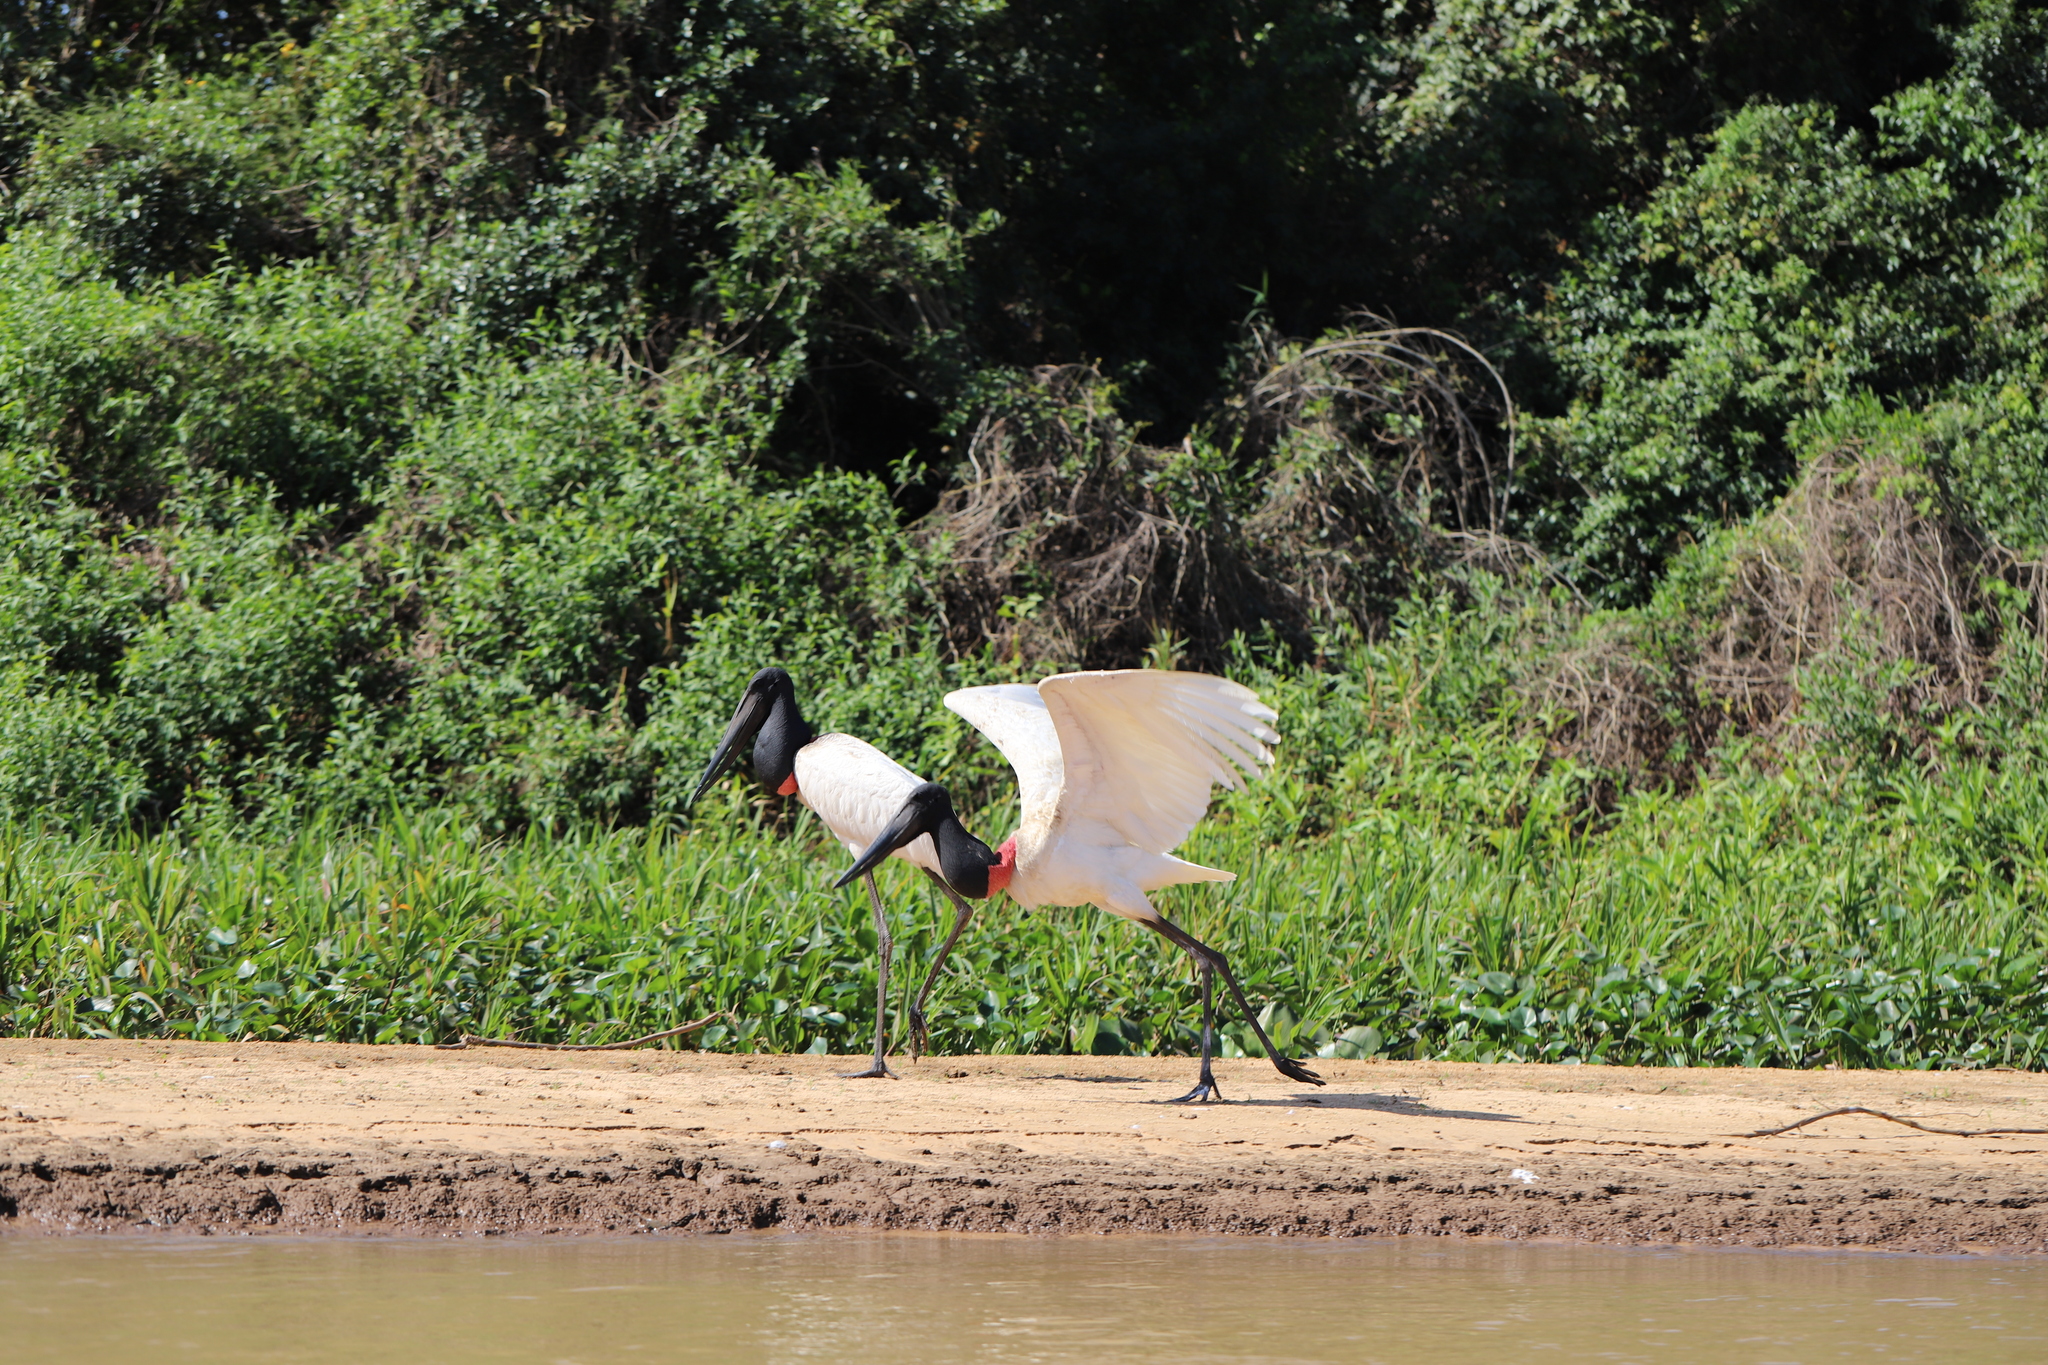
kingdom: Animalia
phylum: Chordata
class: Aves
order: Ciconiiformes
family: Ciconiidae
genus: Jabiru
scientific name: Jabiru mycteria
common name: Jabiru
